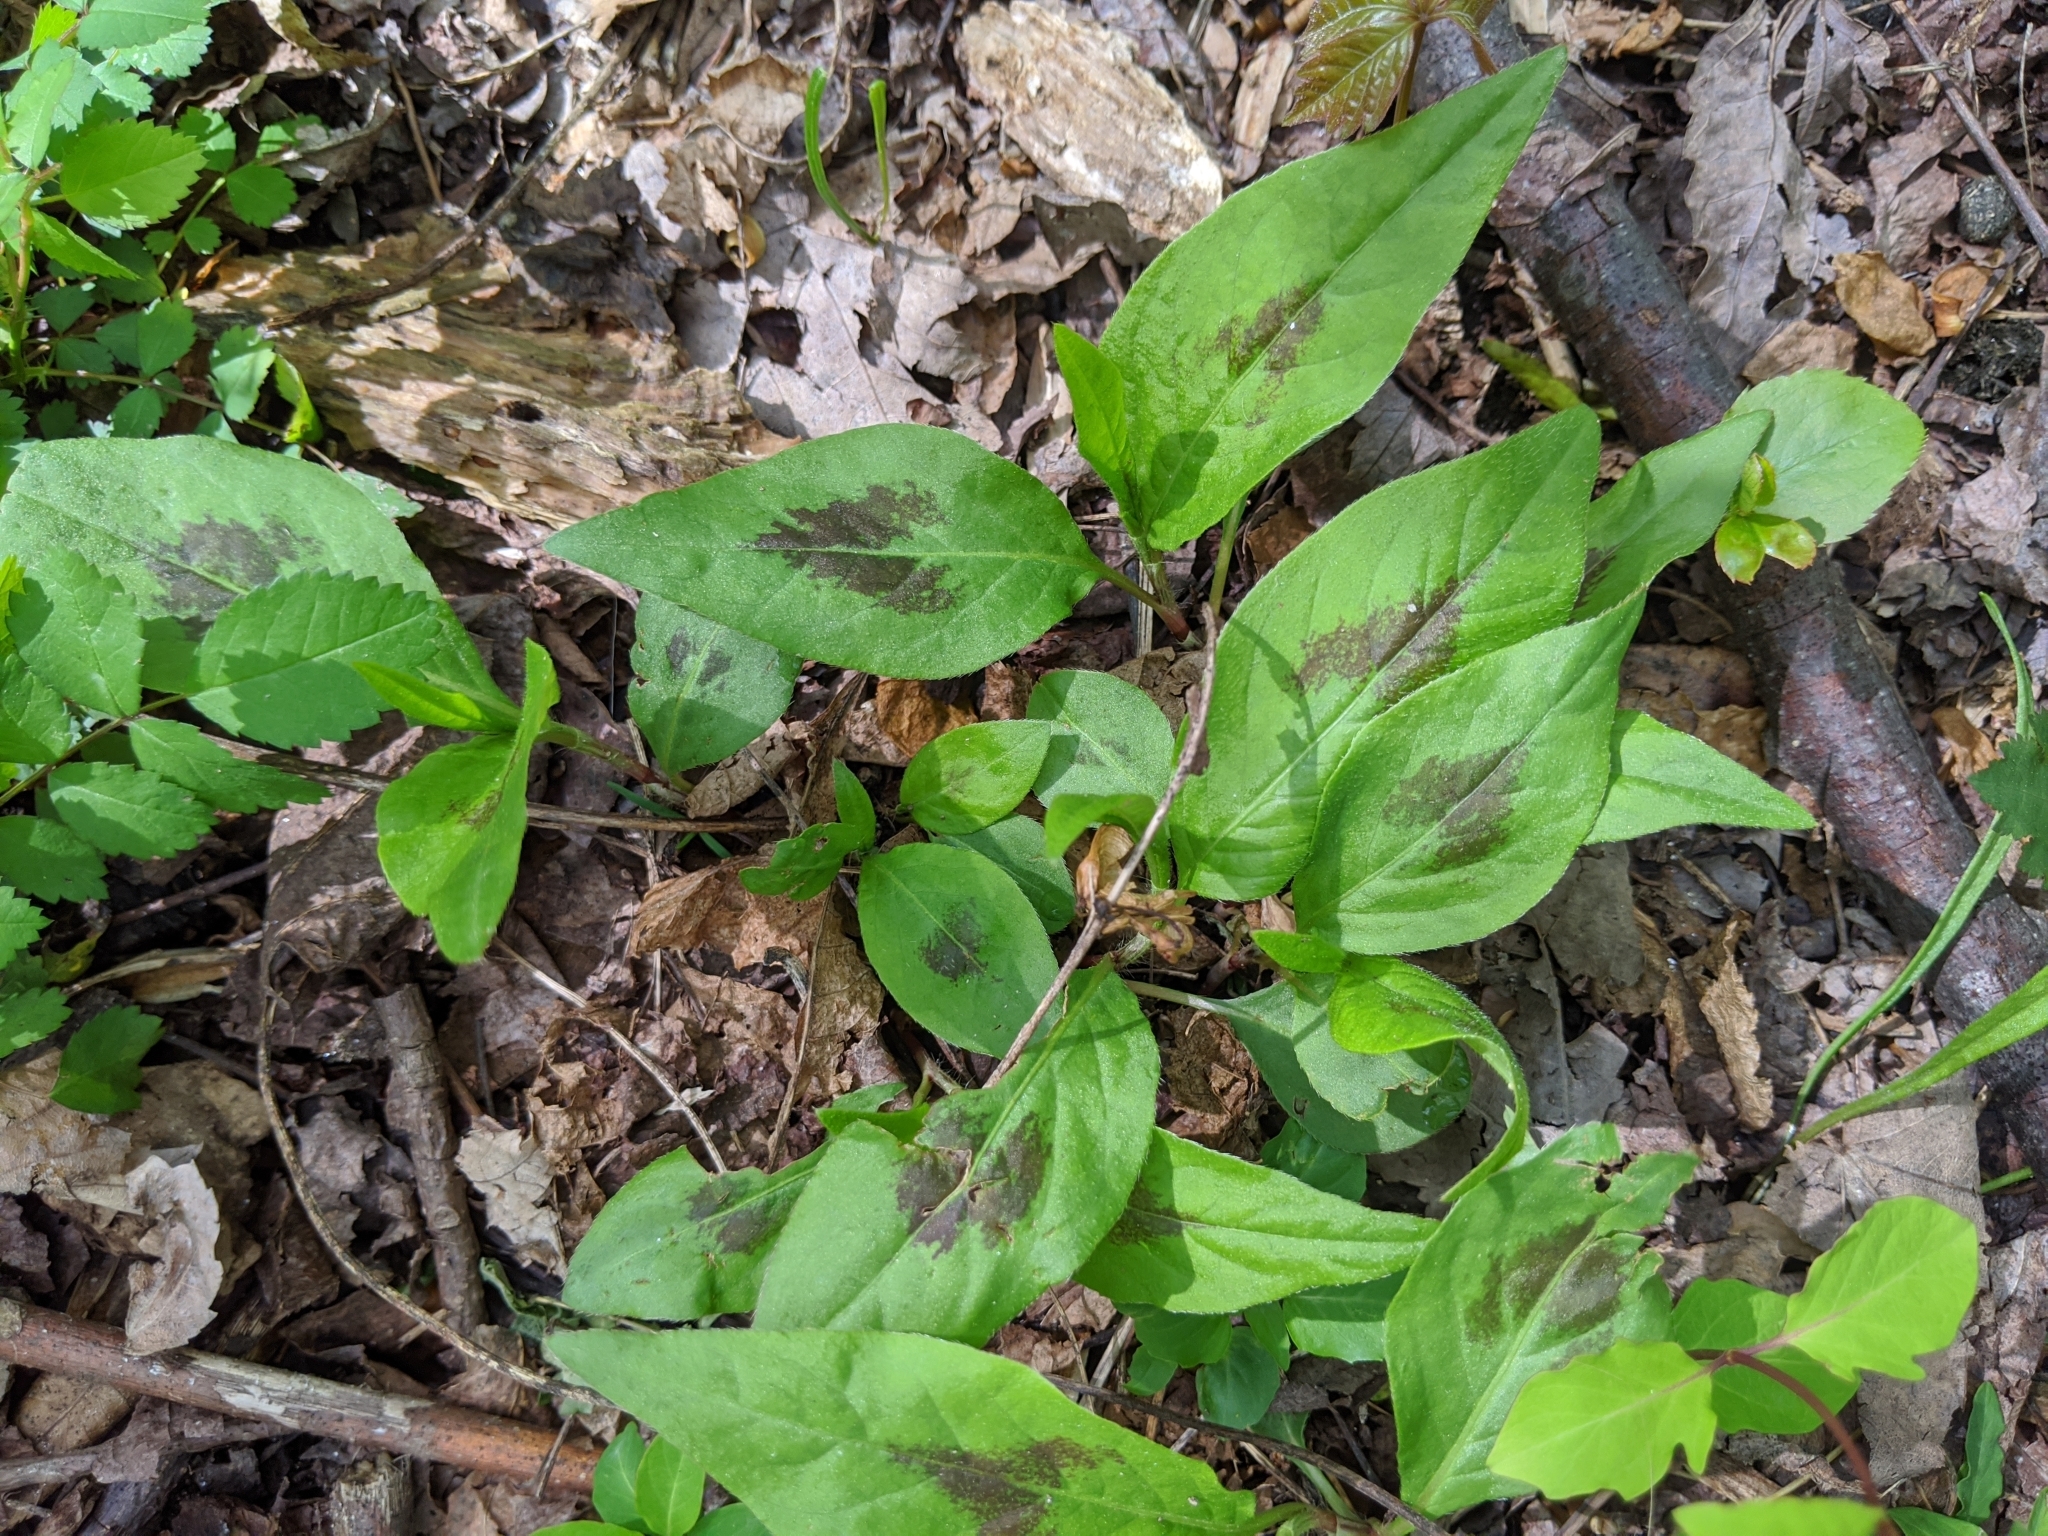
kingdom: Plantae
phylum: Tracheophyta
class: Magnoliopsida
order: Caryophyllales
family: Polygonaceae
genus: Persicaria
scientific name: Persicaria virginiana
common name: Jumpseed
